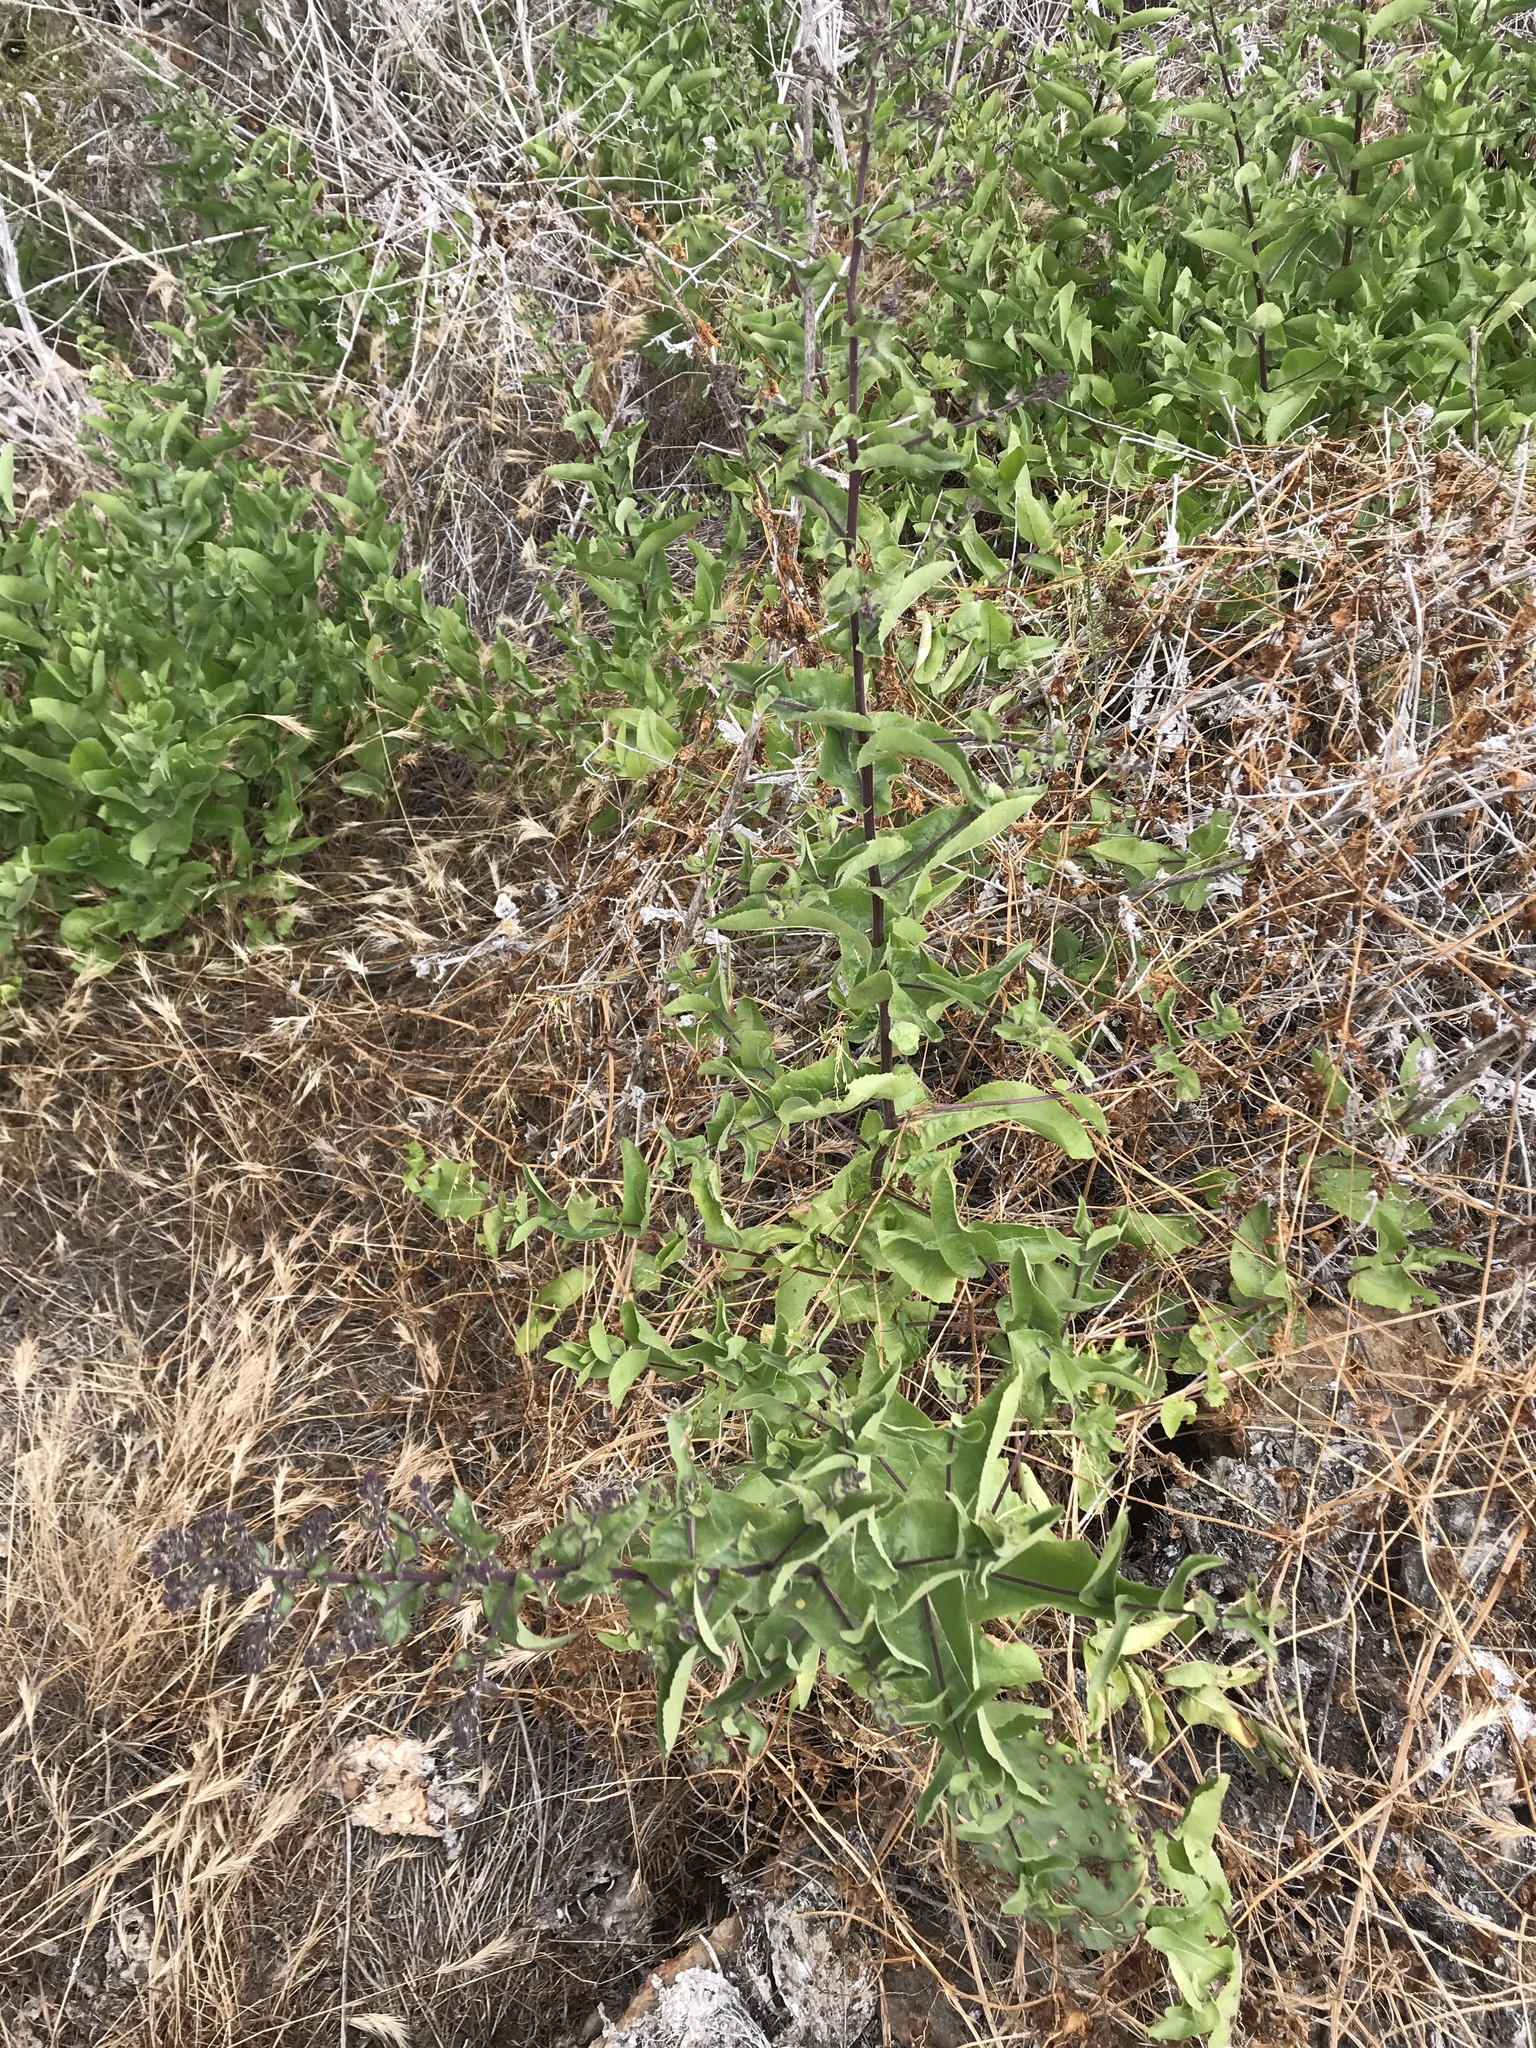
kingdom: Plantae
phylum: Tracheophyta
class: Magnoliopsida
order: Asterales
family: Asteraceae
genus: Acourtia
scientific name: Acourtia microcephala
